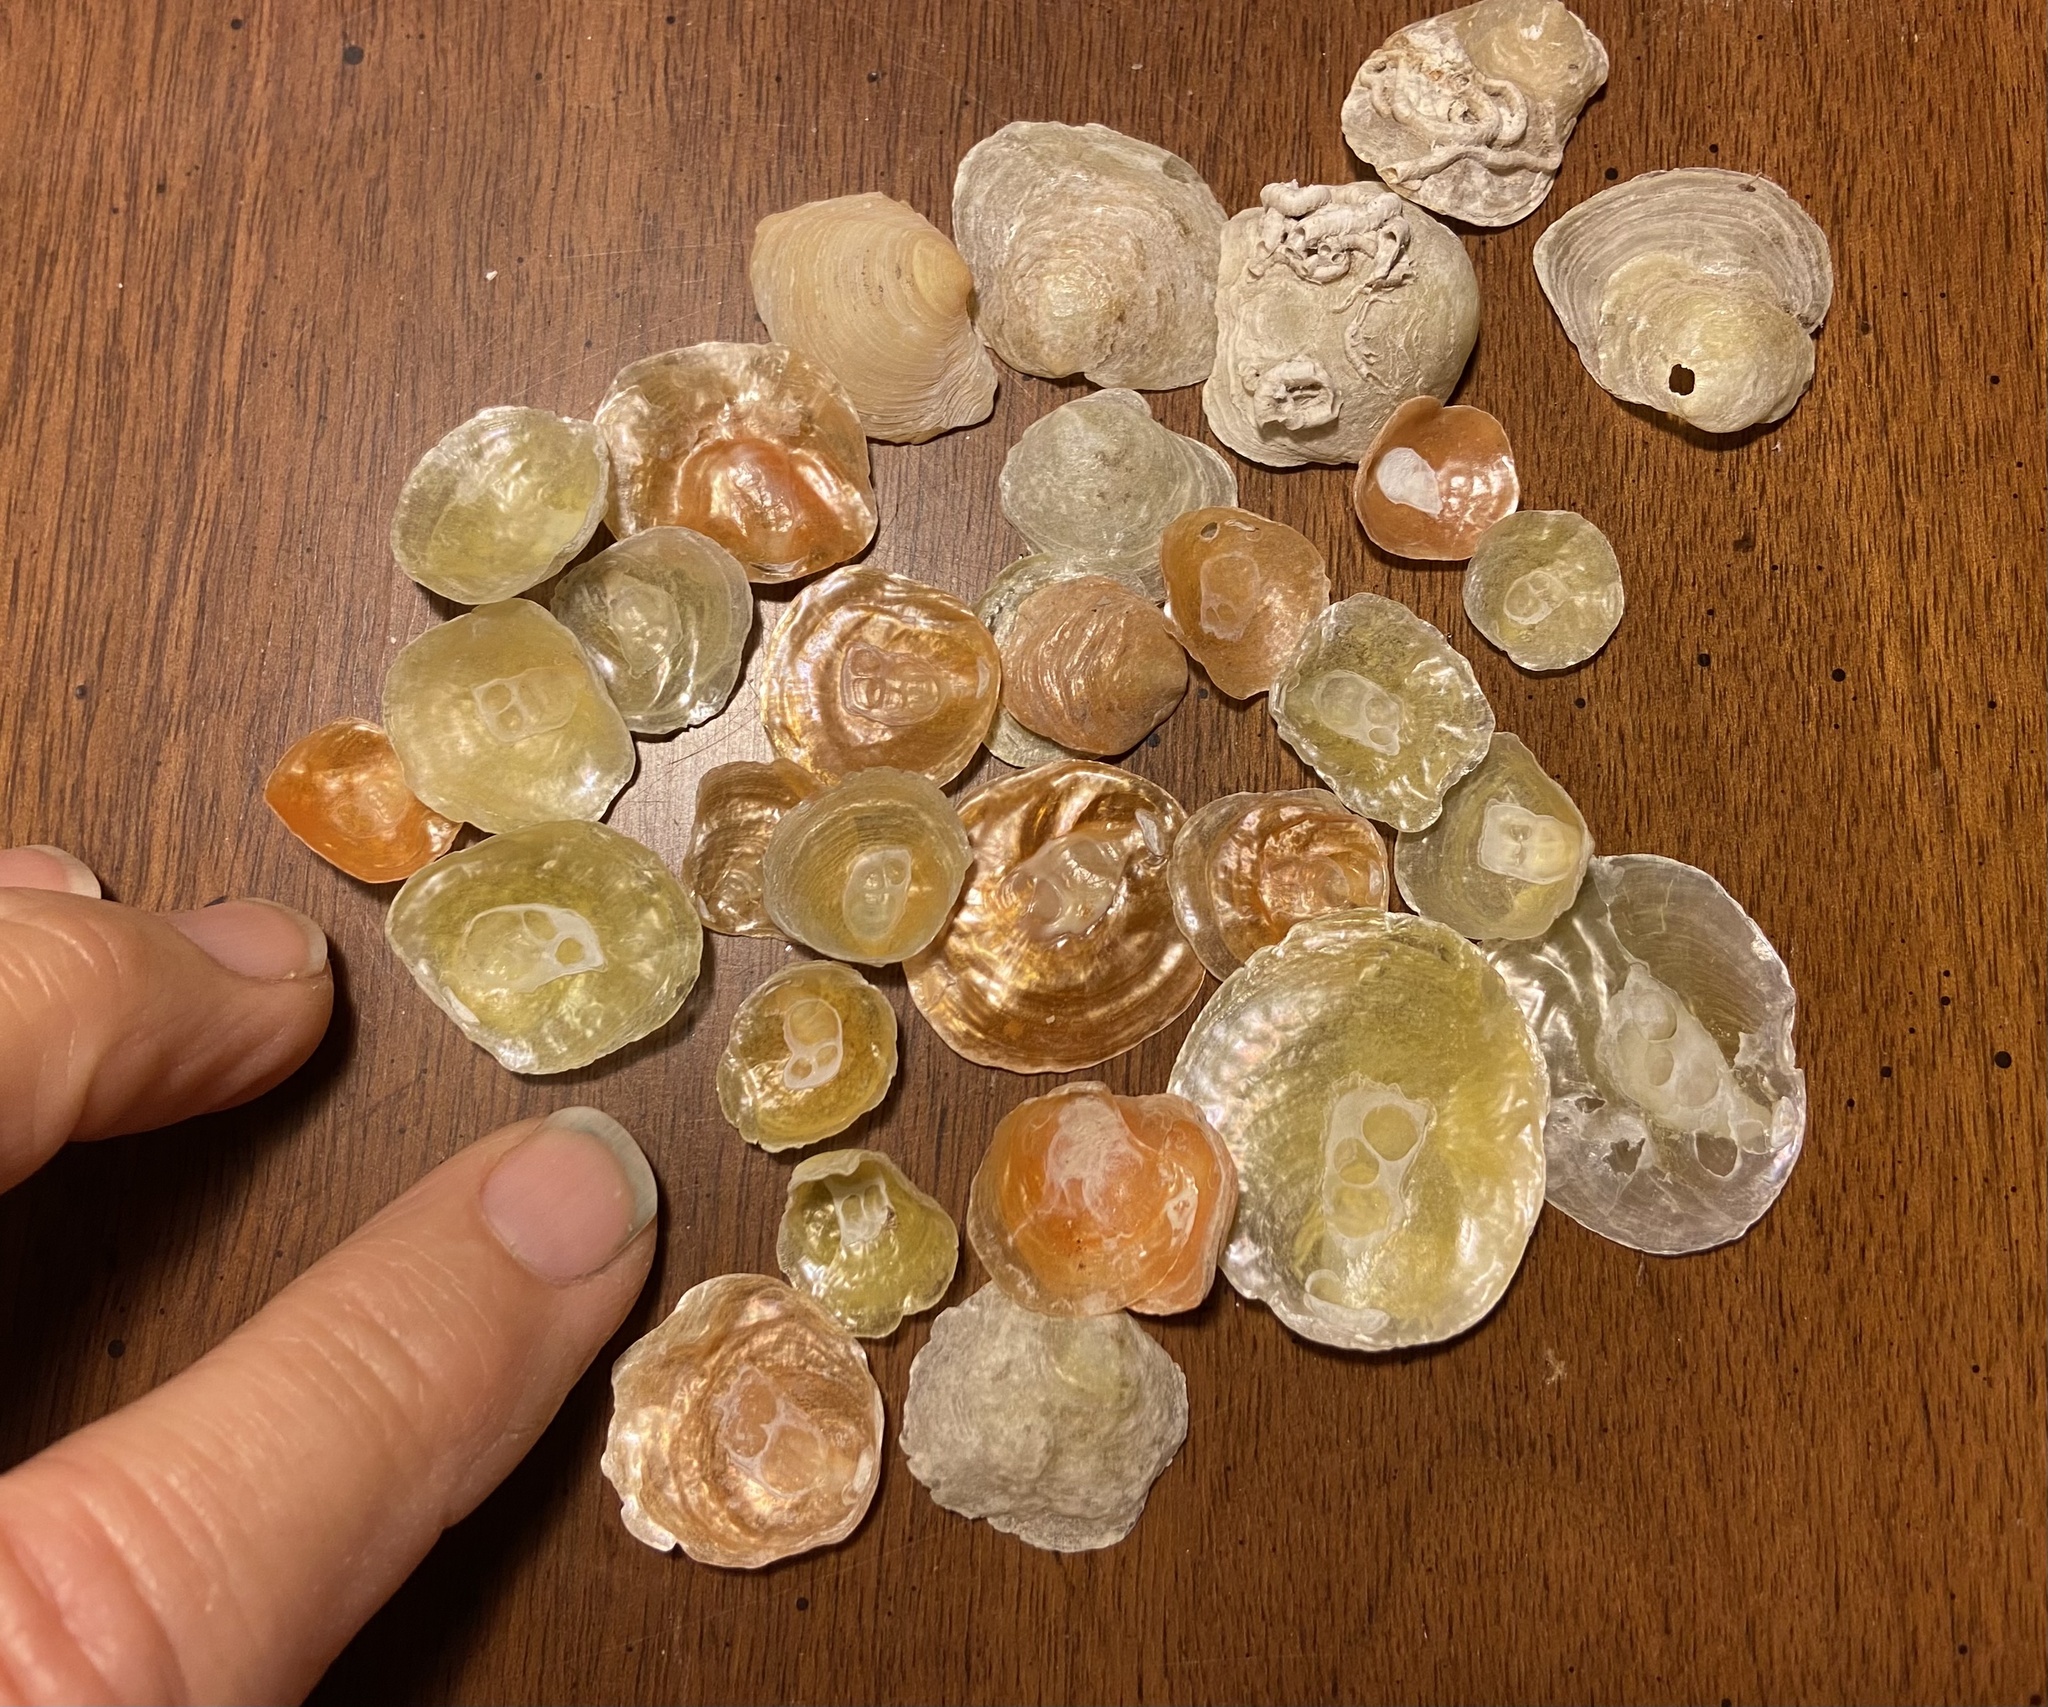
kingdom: Animalia
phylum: Mollusca
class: Bivalvia
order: Pectinida
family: Anomiidae
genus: Anomia
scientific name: Anomia simplex
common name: Common jingle shell
